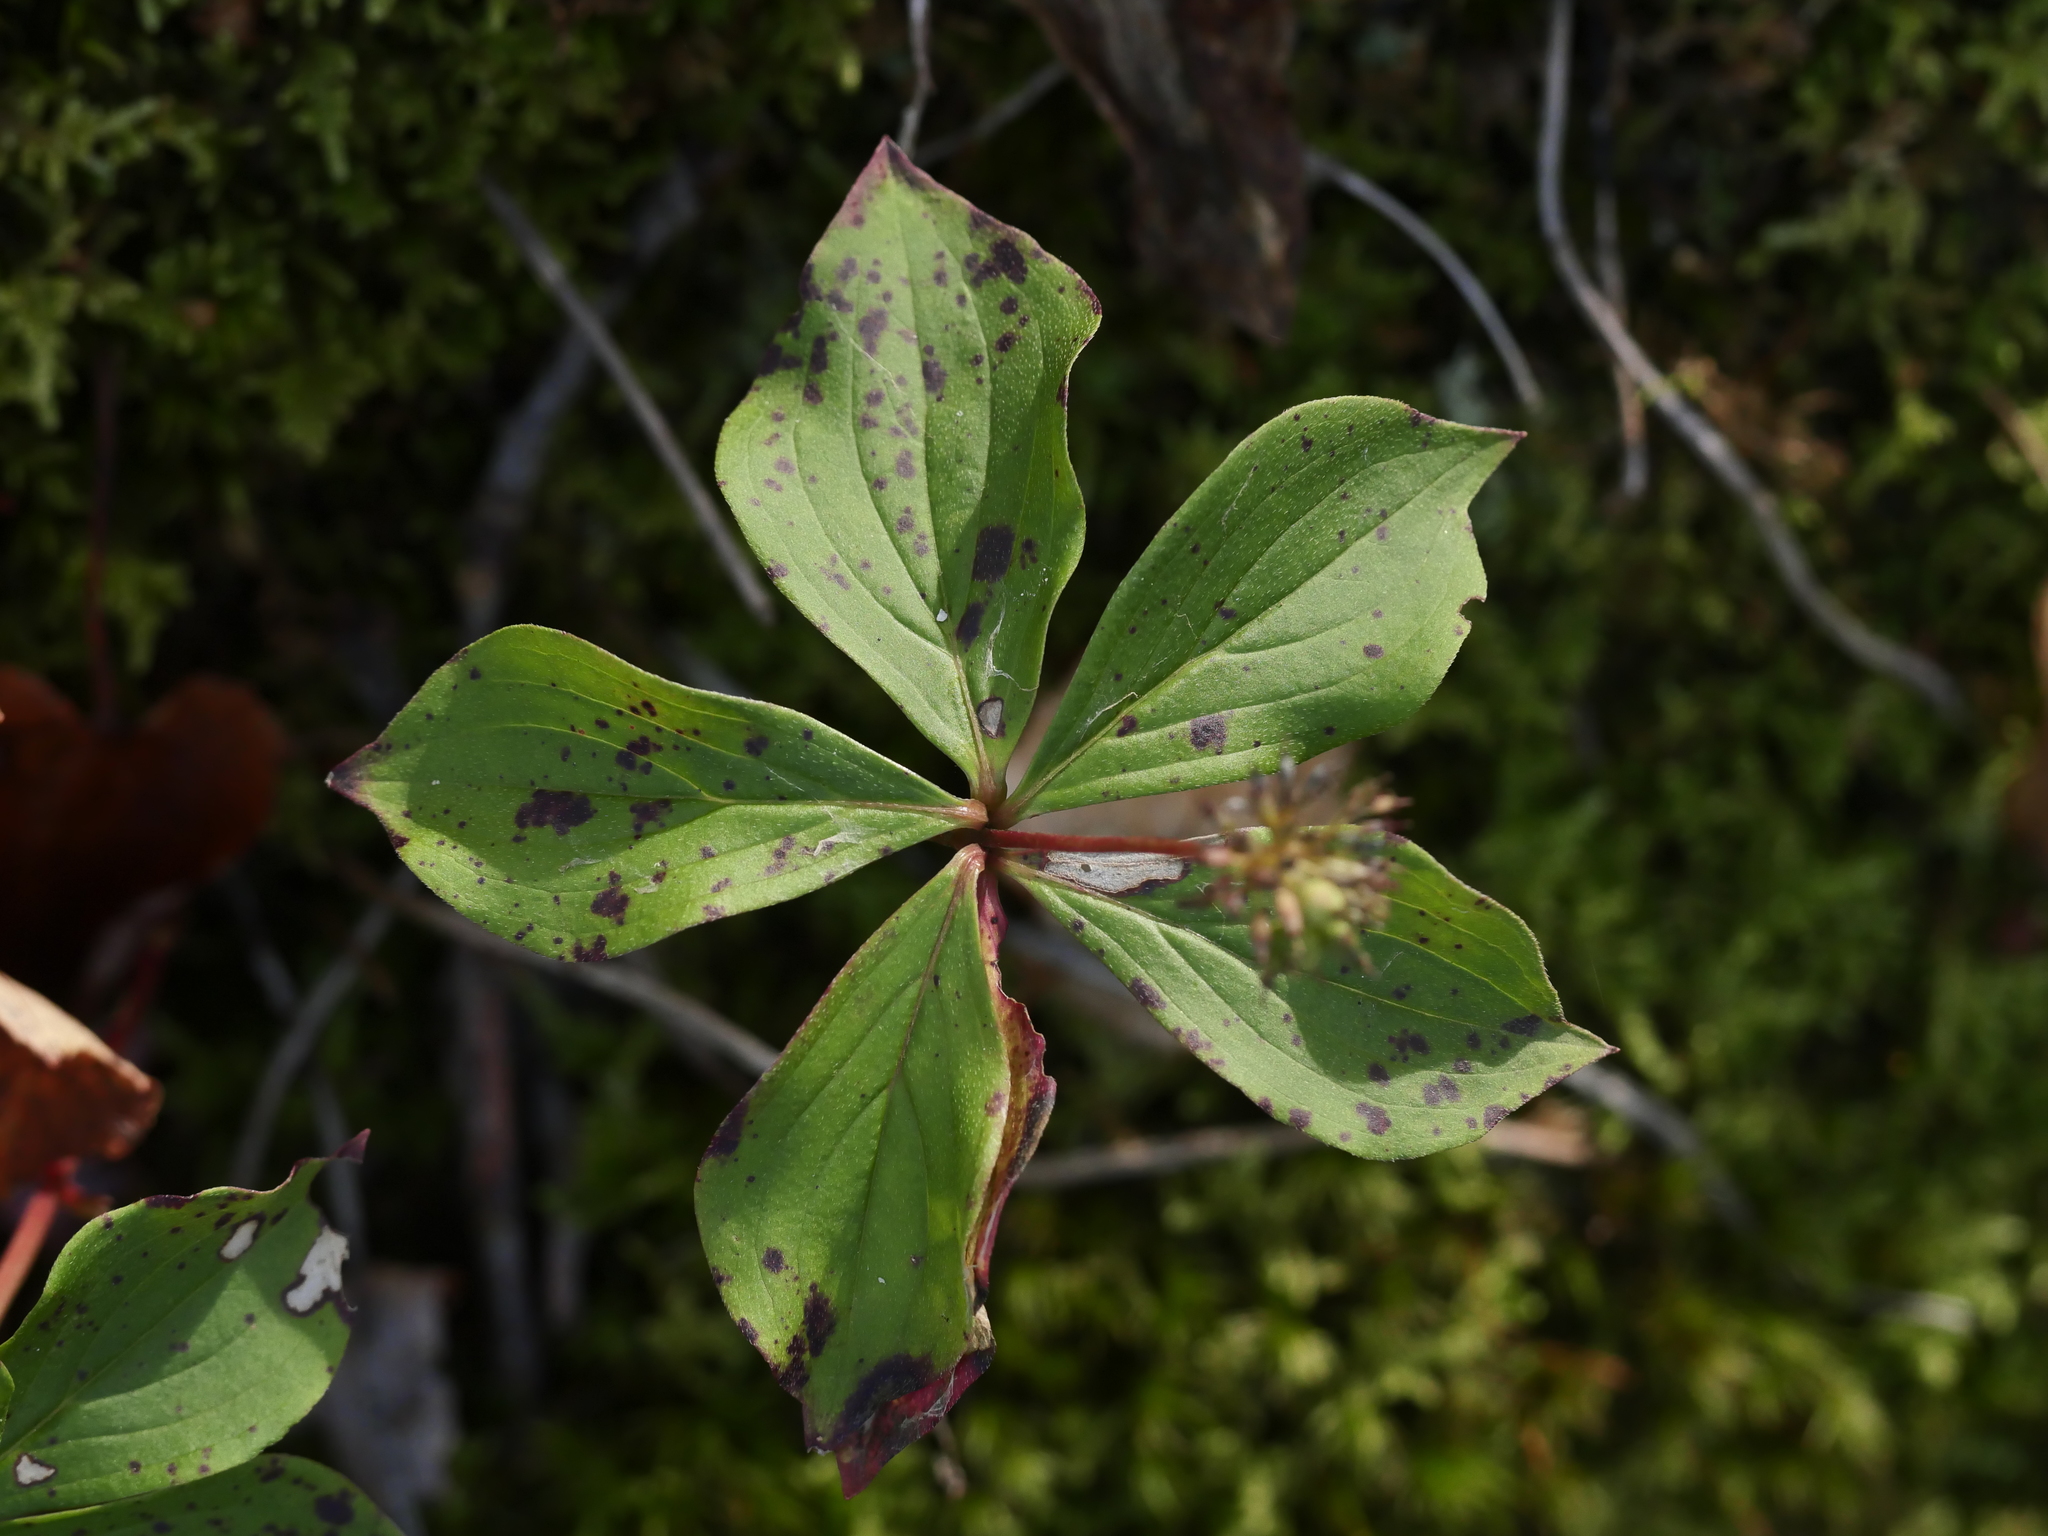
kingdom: Plantae
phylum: Tracheophyta
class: Magnoliopsida
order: Cornales
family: Cornaceae
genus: Cornus
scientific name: Cornus canadensis
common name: Creeping dogwood
